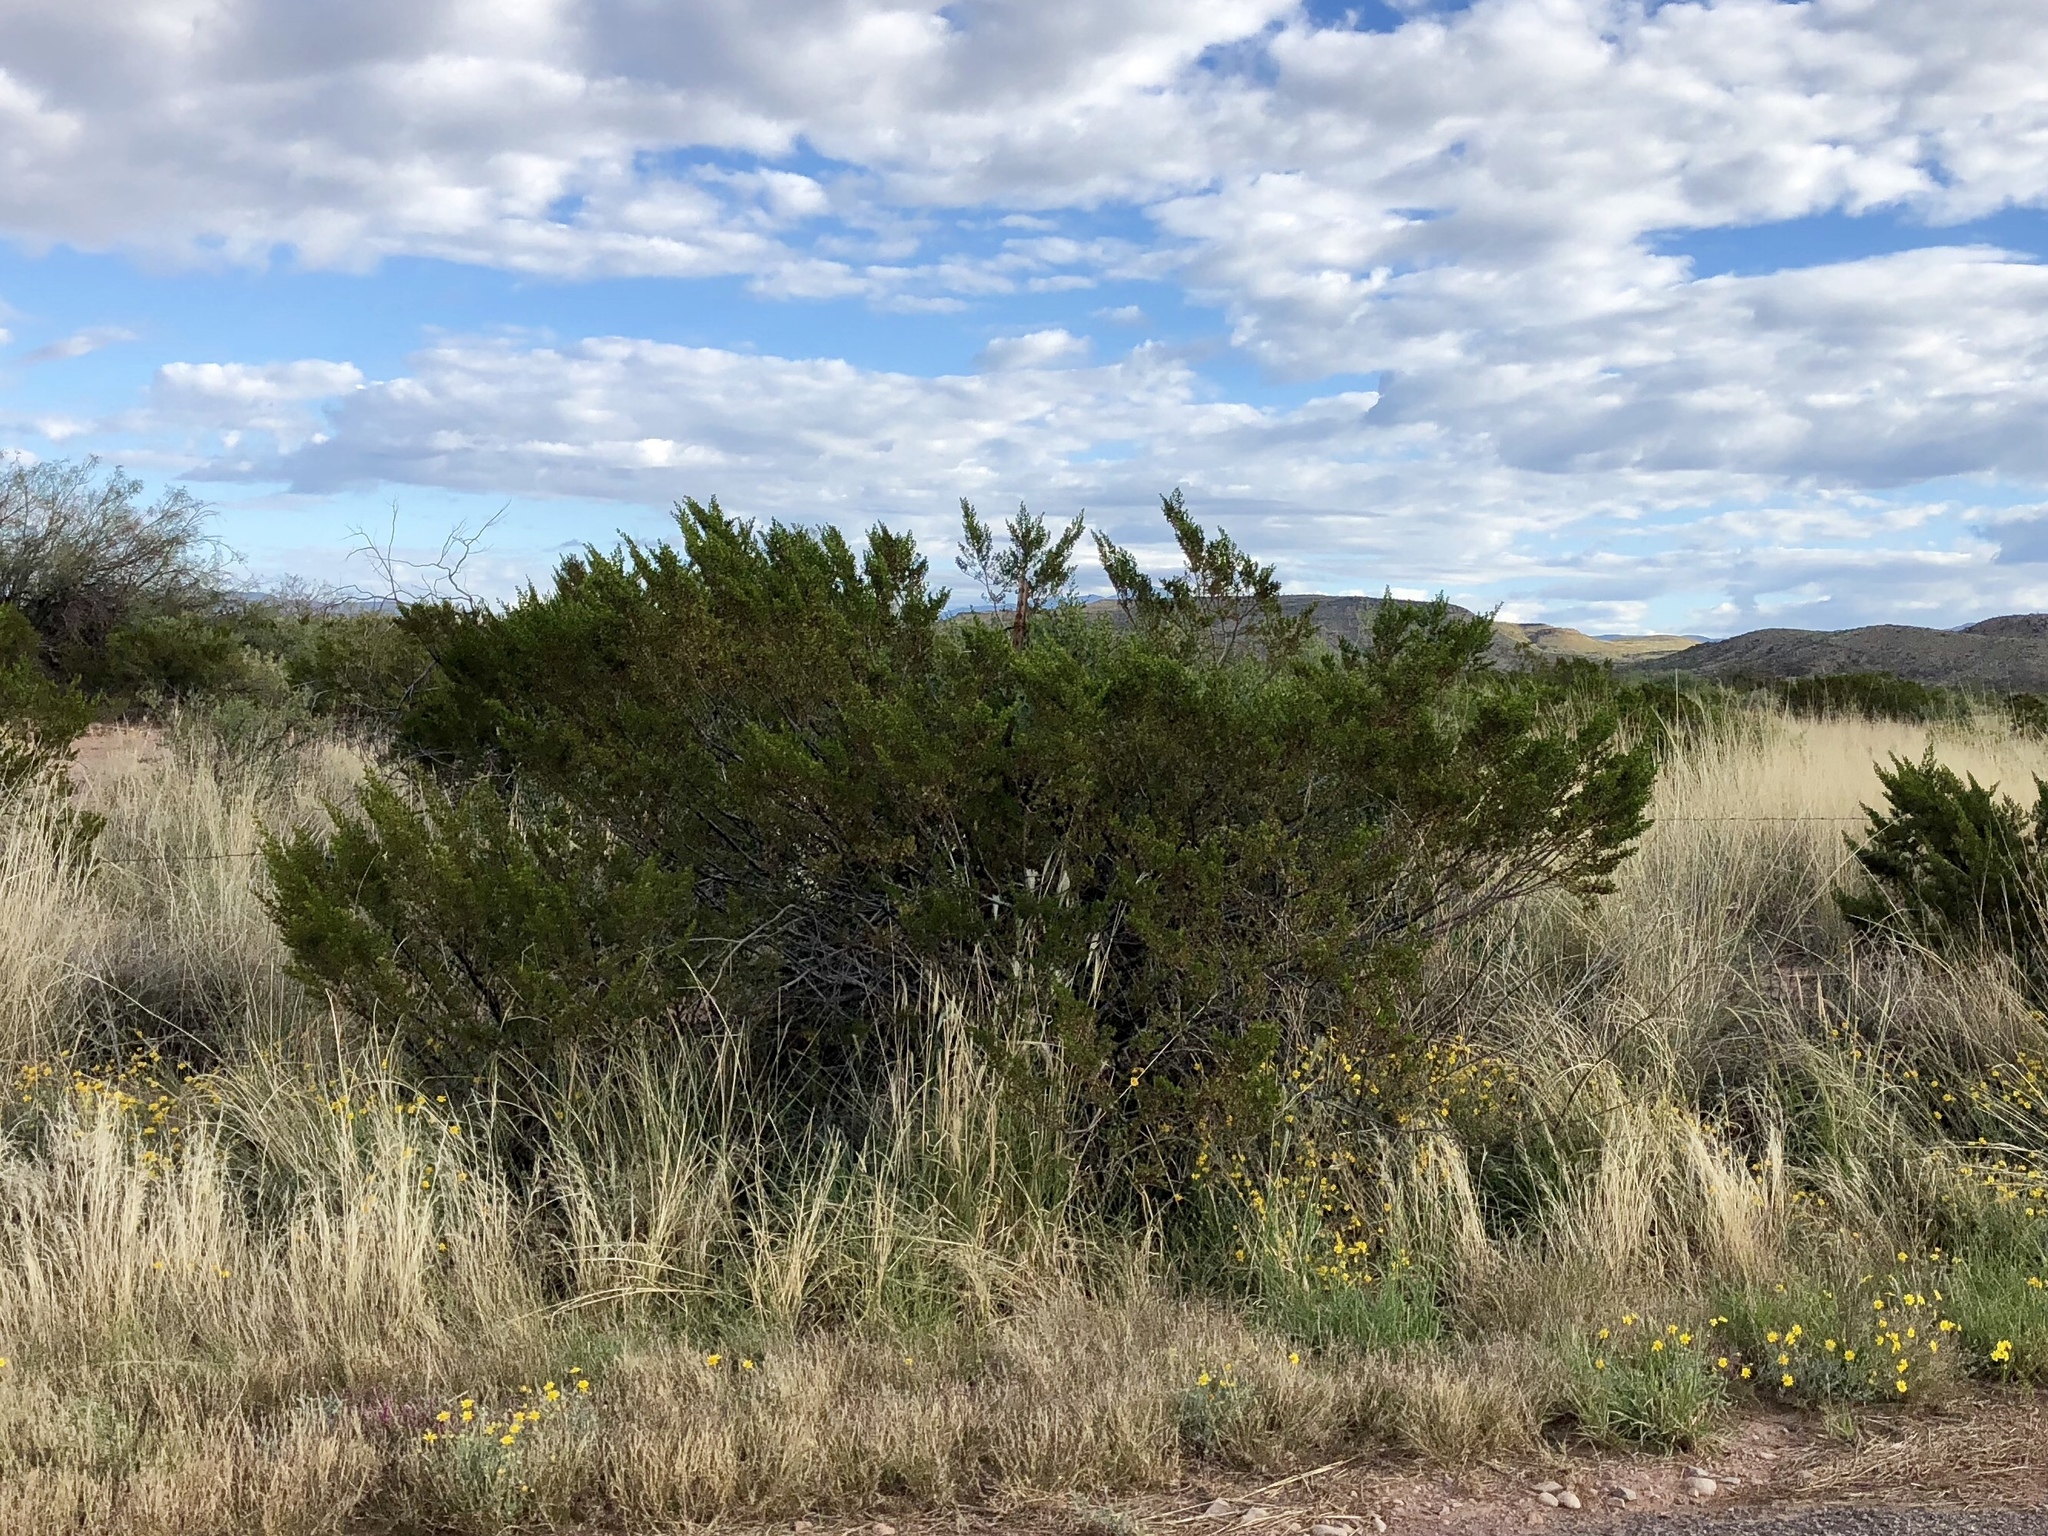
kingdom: Plantae
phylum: Tracheophyta
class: Magnoliopsida
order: Zygophyllales
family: Zygophyllaceae
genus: Larrea
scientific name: Larrea tridentata
